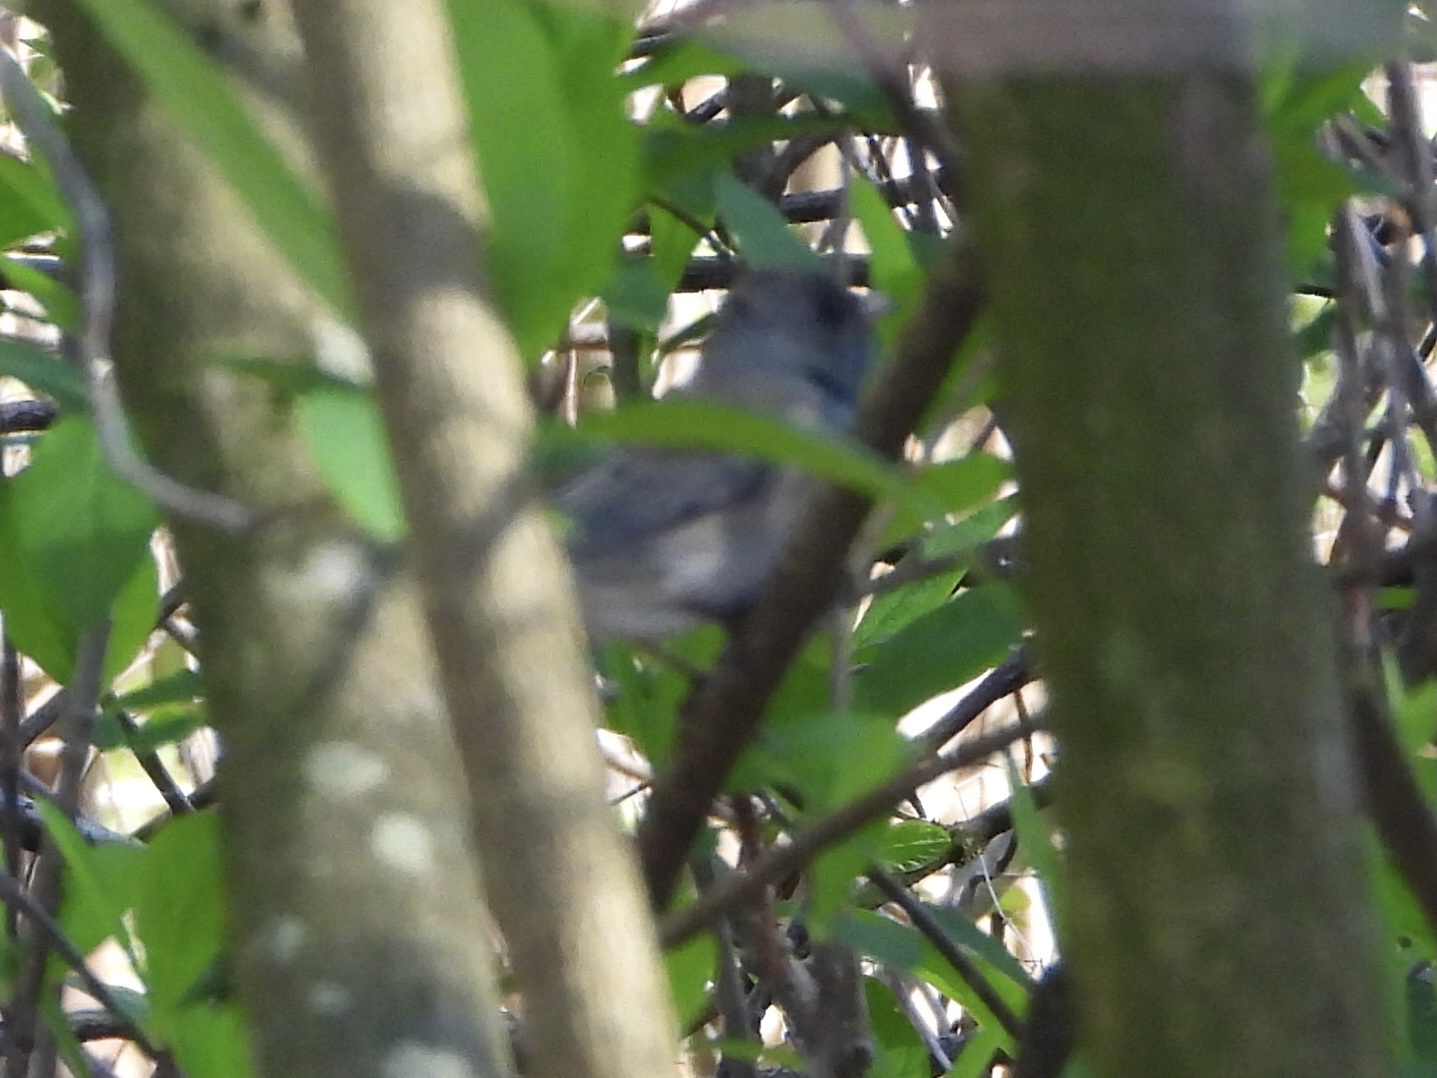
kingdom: Animalia
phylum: Chordata
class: Aves
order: Passeriformes
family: Passerellidae
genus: Junco
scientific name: Junco hyemalis
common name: Dark-eyed junco
